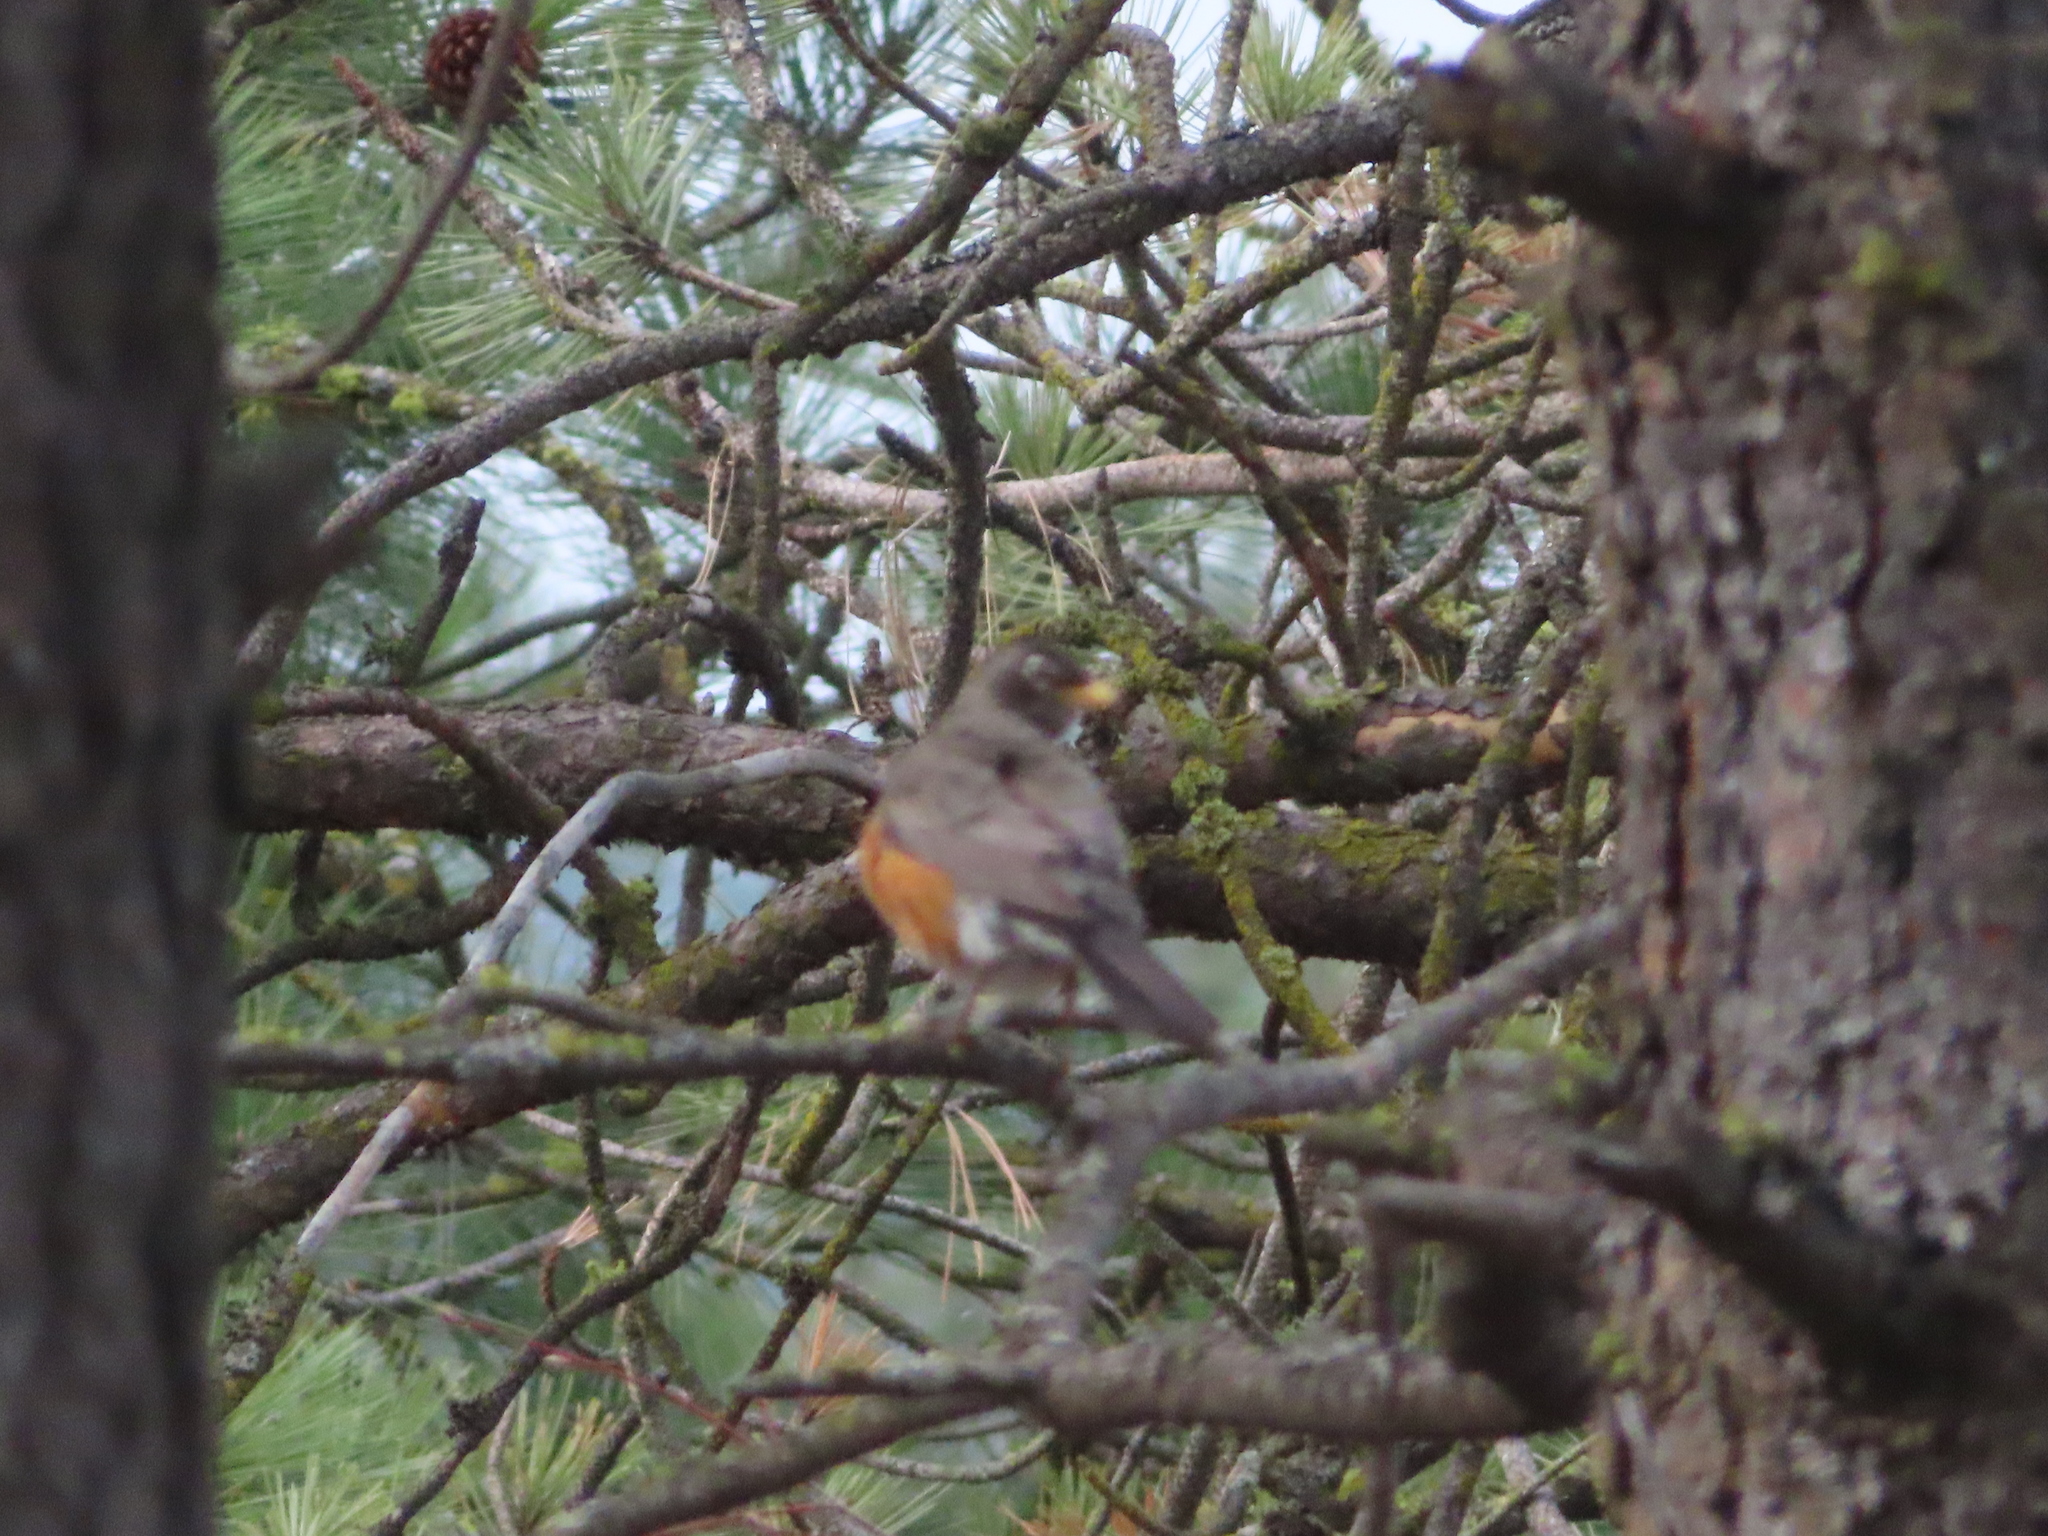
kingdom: Animalia
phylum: Chordata
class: Aves
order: Passeriformes
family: Turdidae
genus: Turdus
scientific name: Turdus migratorius
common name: American robin
